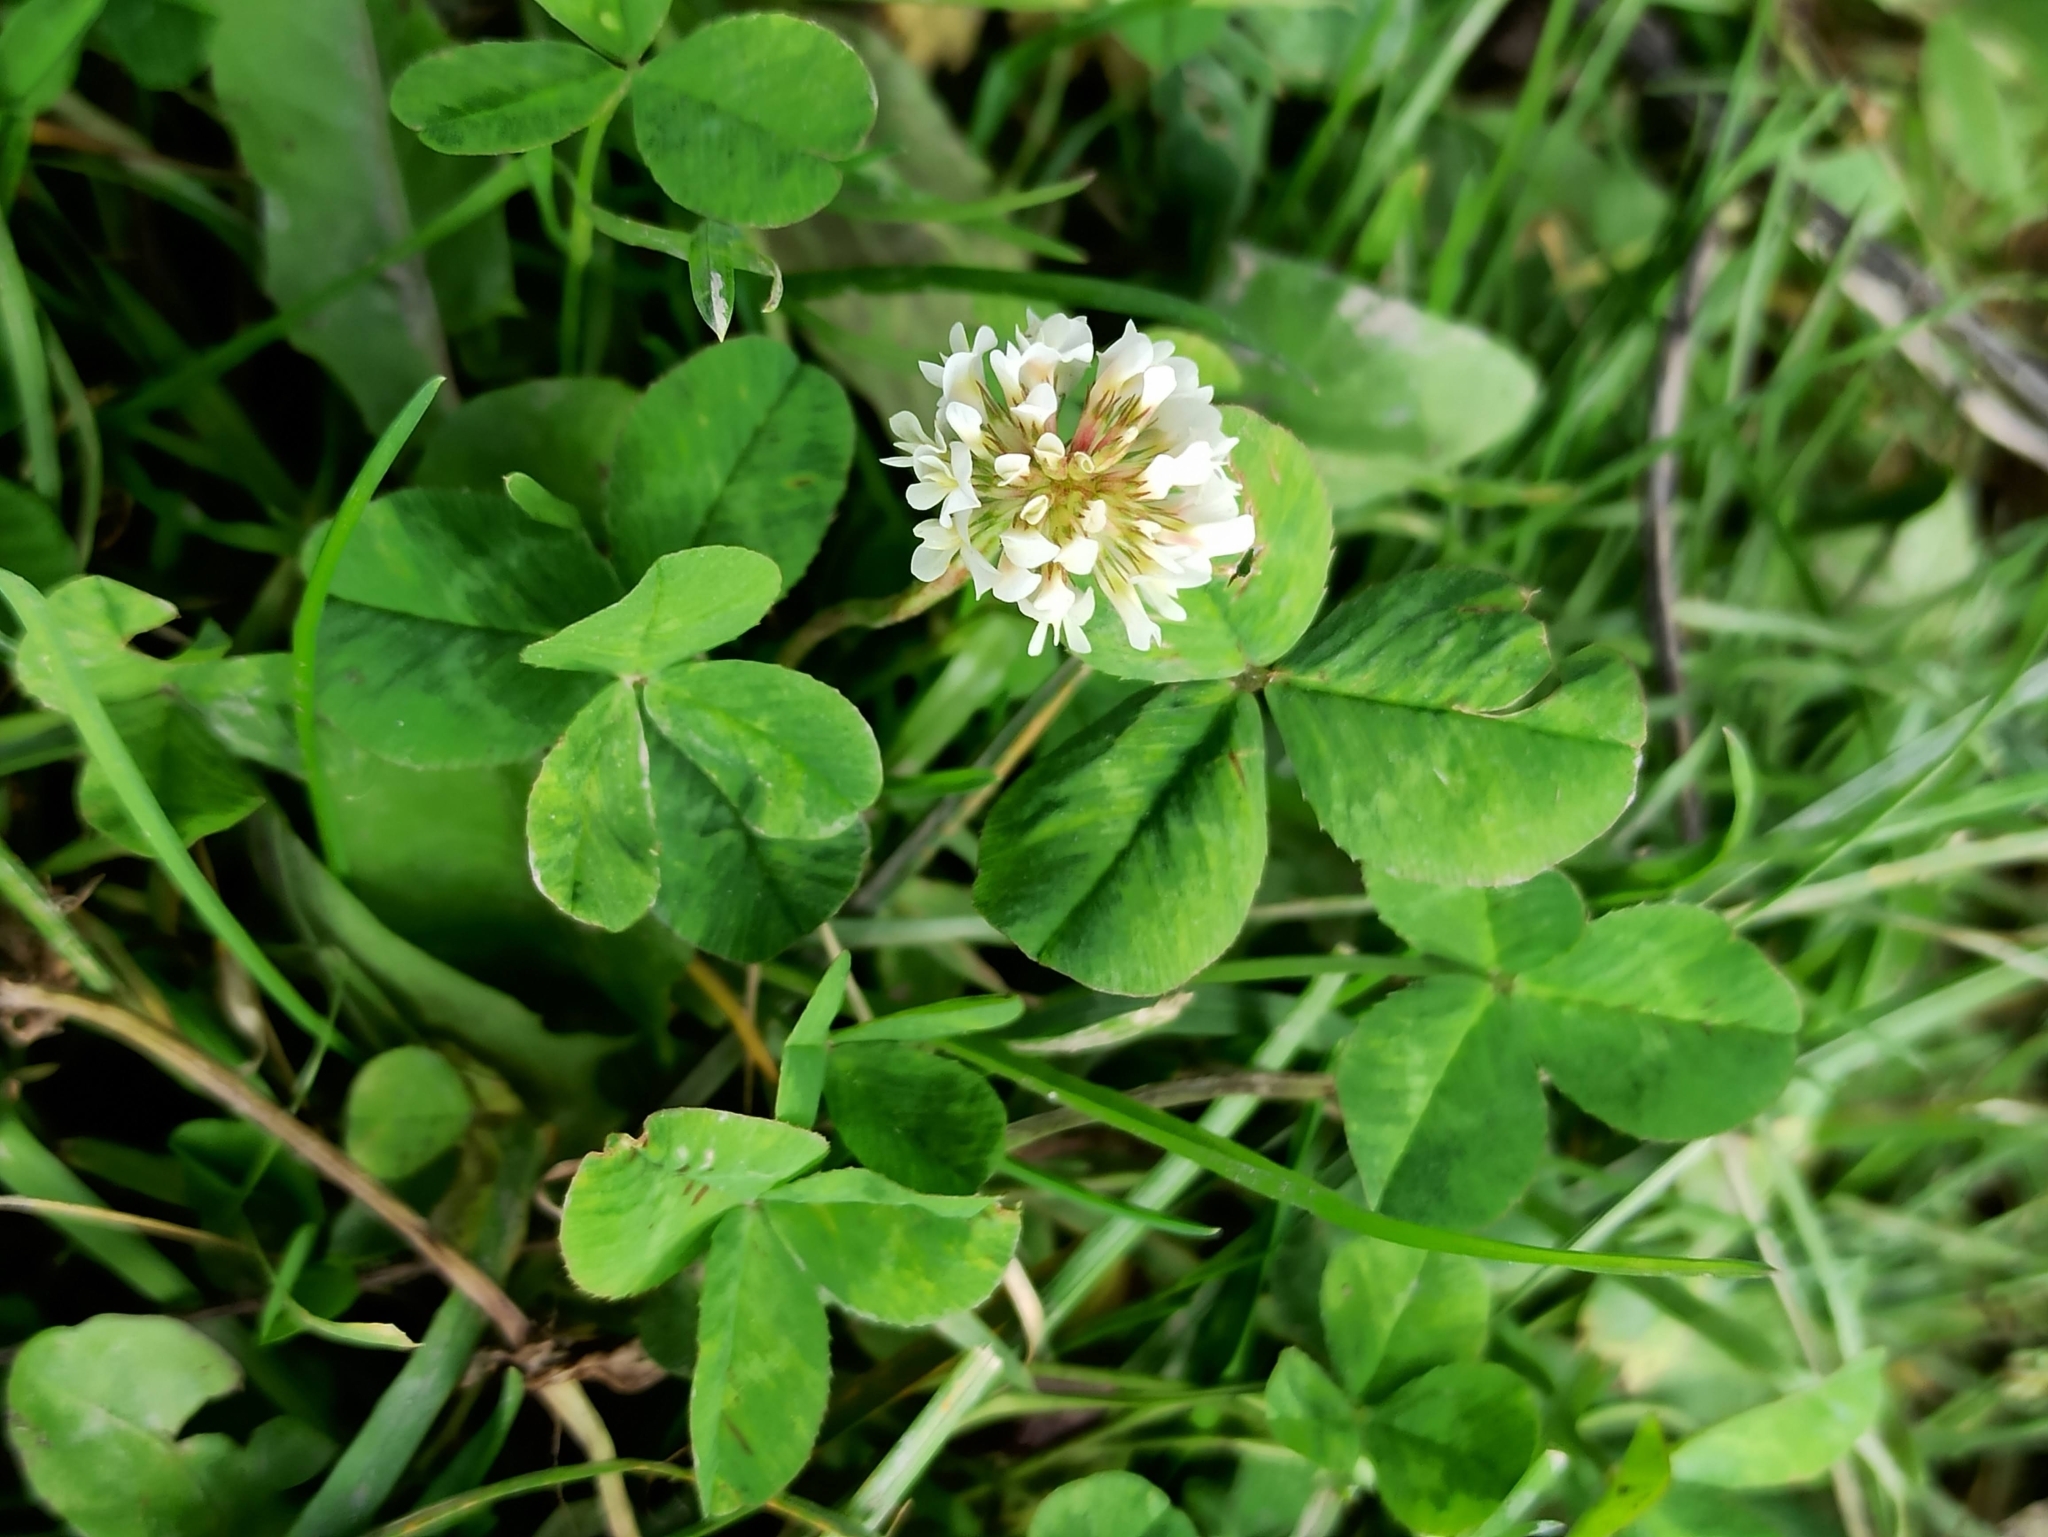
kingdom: Plantae
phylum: Tracheophyta
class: Magnoliopsida
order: Fabales
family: Fabaceae
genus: Trifolium
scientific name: Trifolium repens
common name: White clover
